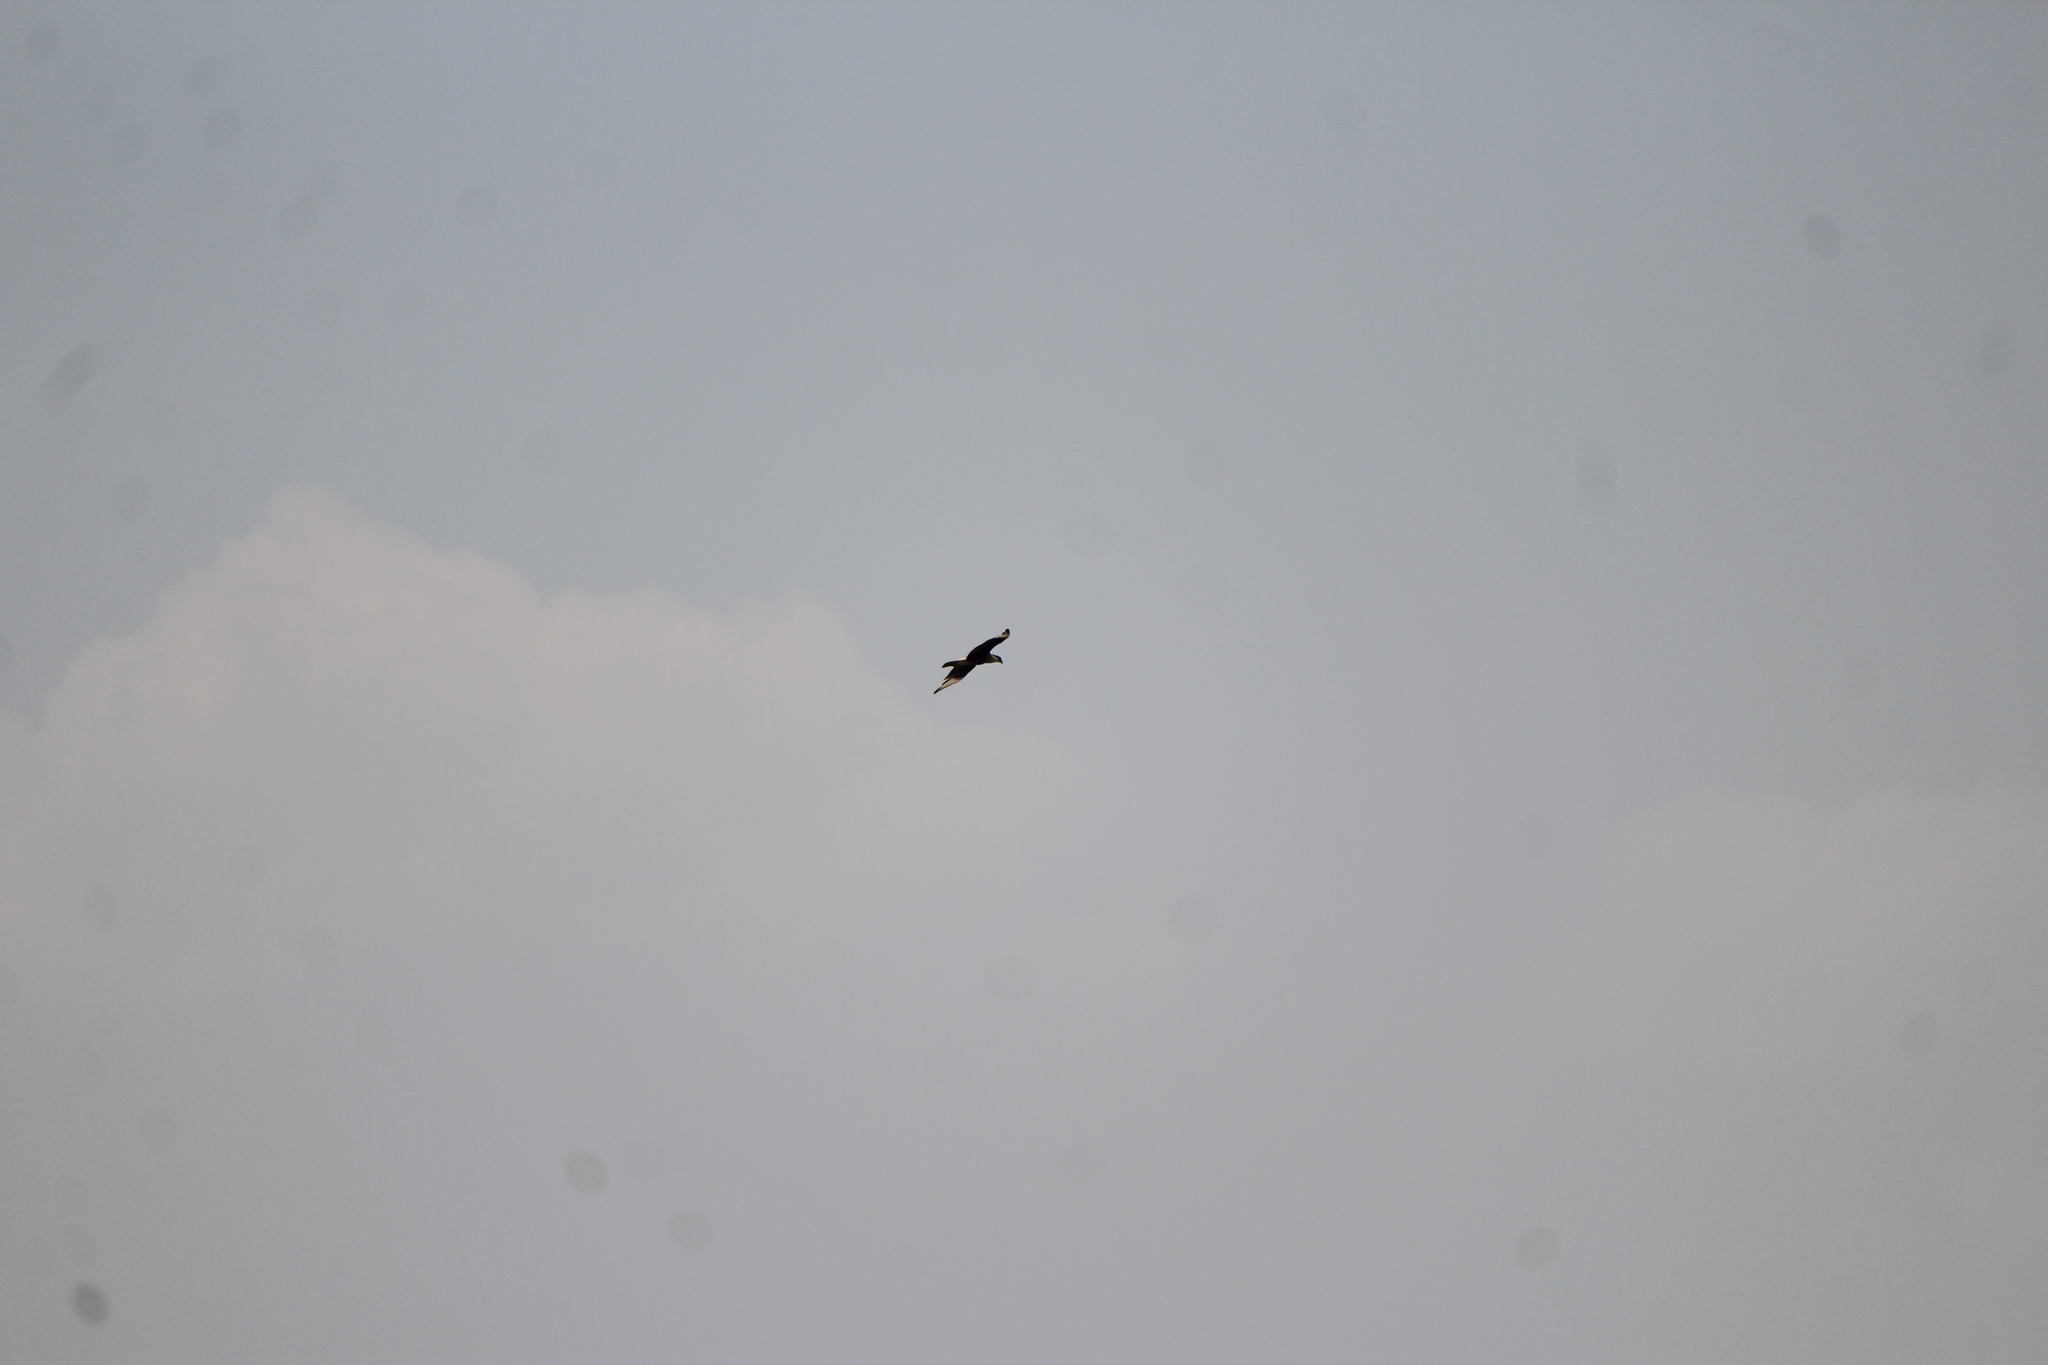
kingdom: Animalia
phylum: Chordata
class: Aves
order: Falconiformes
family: Falconidae
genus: Caracara
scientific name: Caracara plancus
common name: Southern caracara
